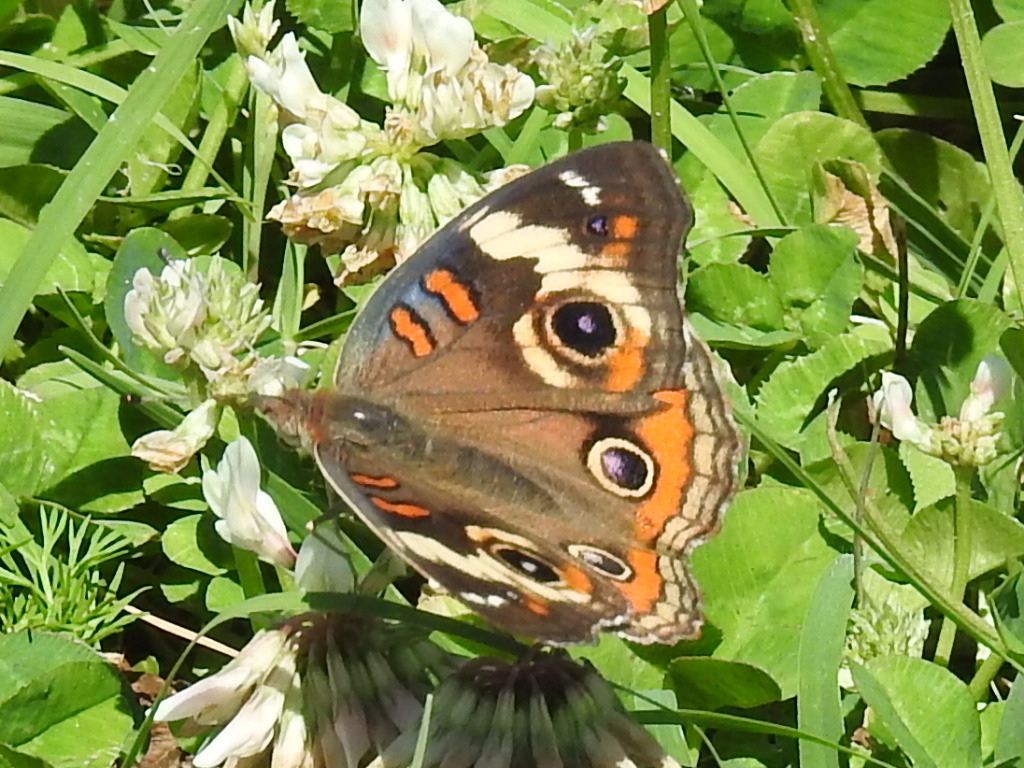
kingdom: Animalia
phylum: Arthropoda
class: Insecta
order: Lepidoptera
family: Nymphalidae
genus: Junonia
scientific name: Junonia coenia
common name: Common buckeye
